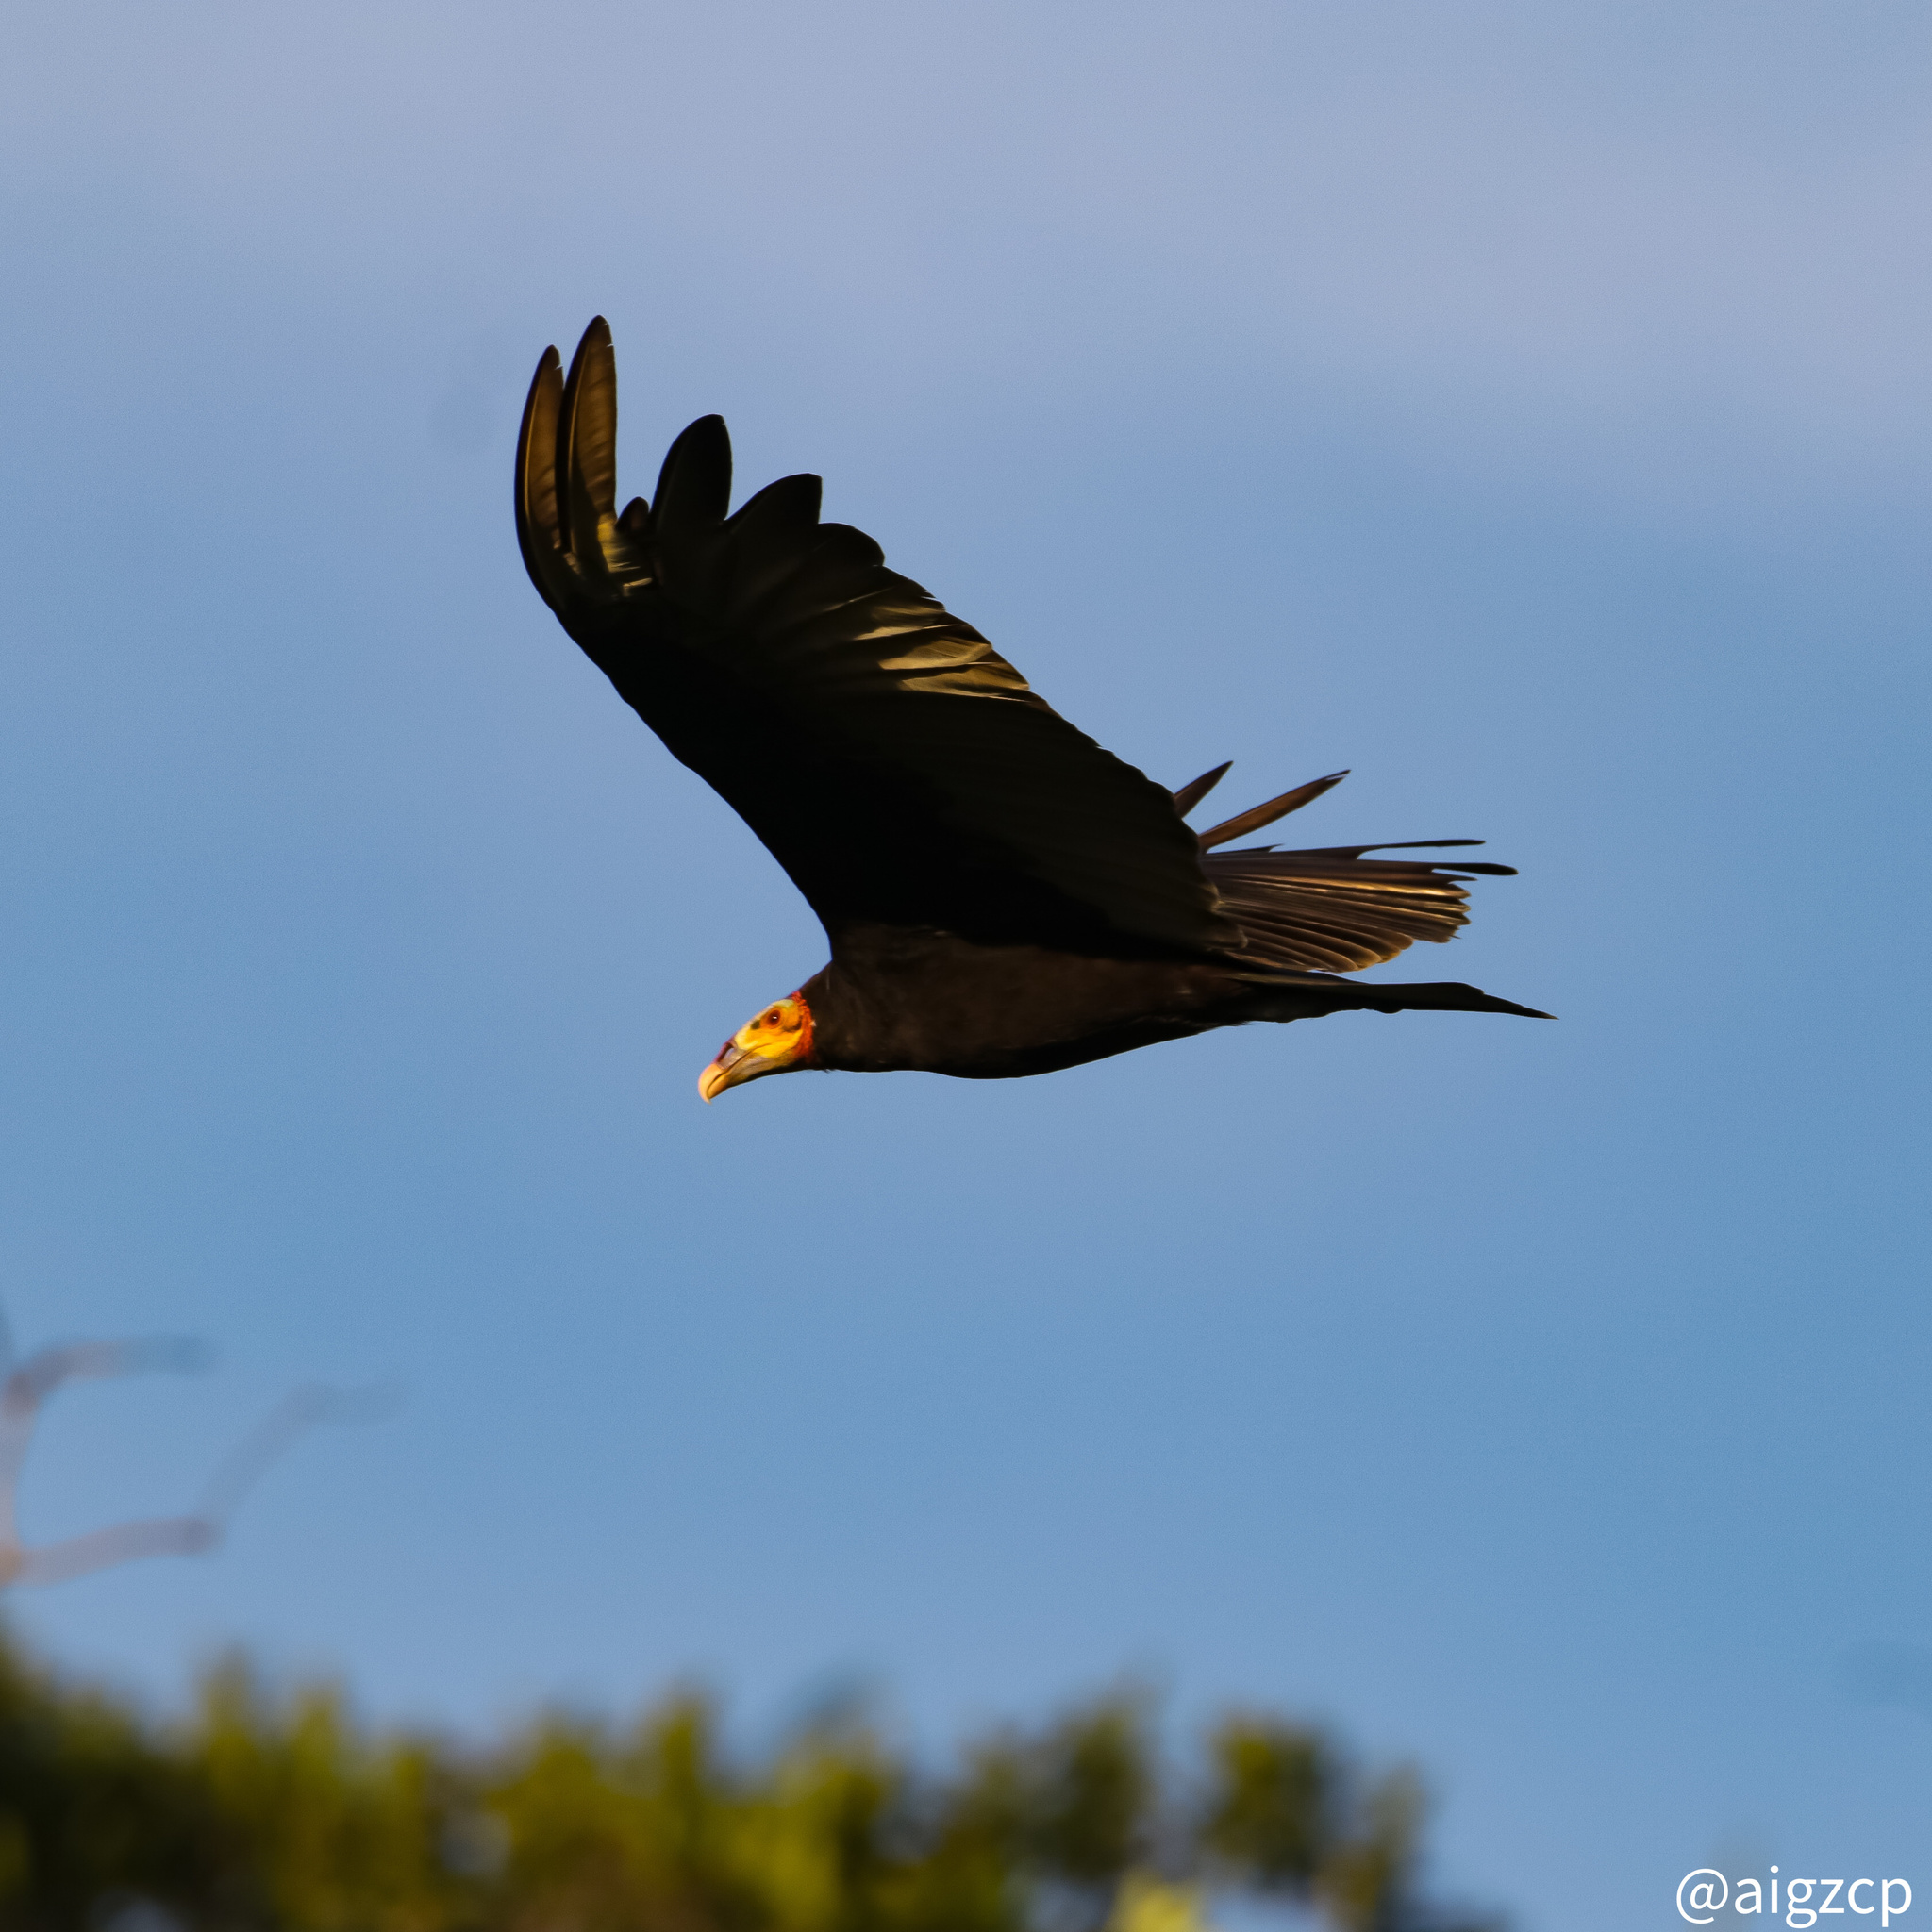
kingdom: Animalia
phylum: Chordata
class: Aves
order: Accipitriformes
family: Cathartidae
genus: Cathartes
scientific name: Cathartes burrovianus
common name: Lesser yellow-headed vulture
